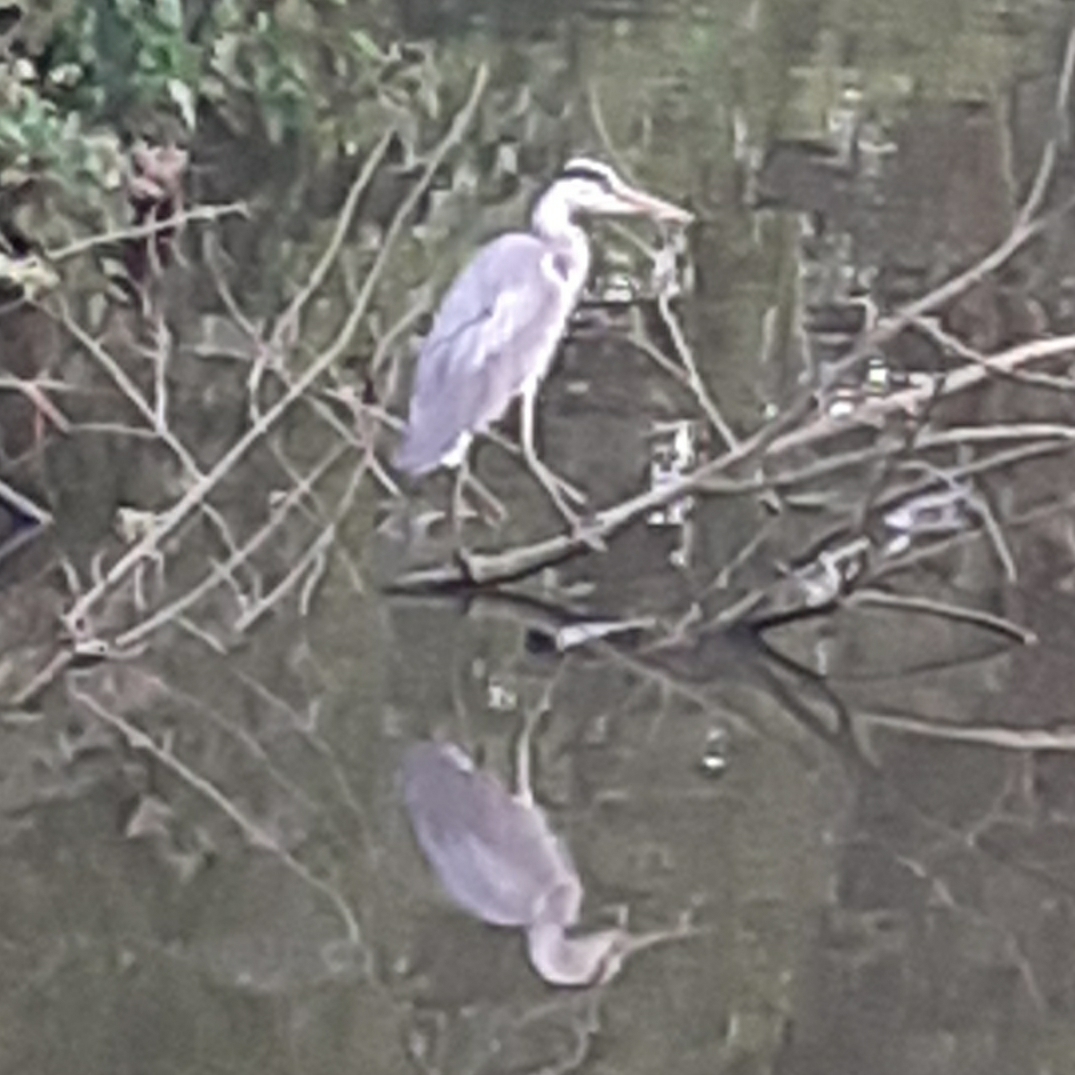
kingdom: Animalia
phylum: Chordata
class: Aves
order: Pelecaniformes
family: Ardeidae
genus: Ardea
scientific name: Ardea cinerea
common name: Grey heron
